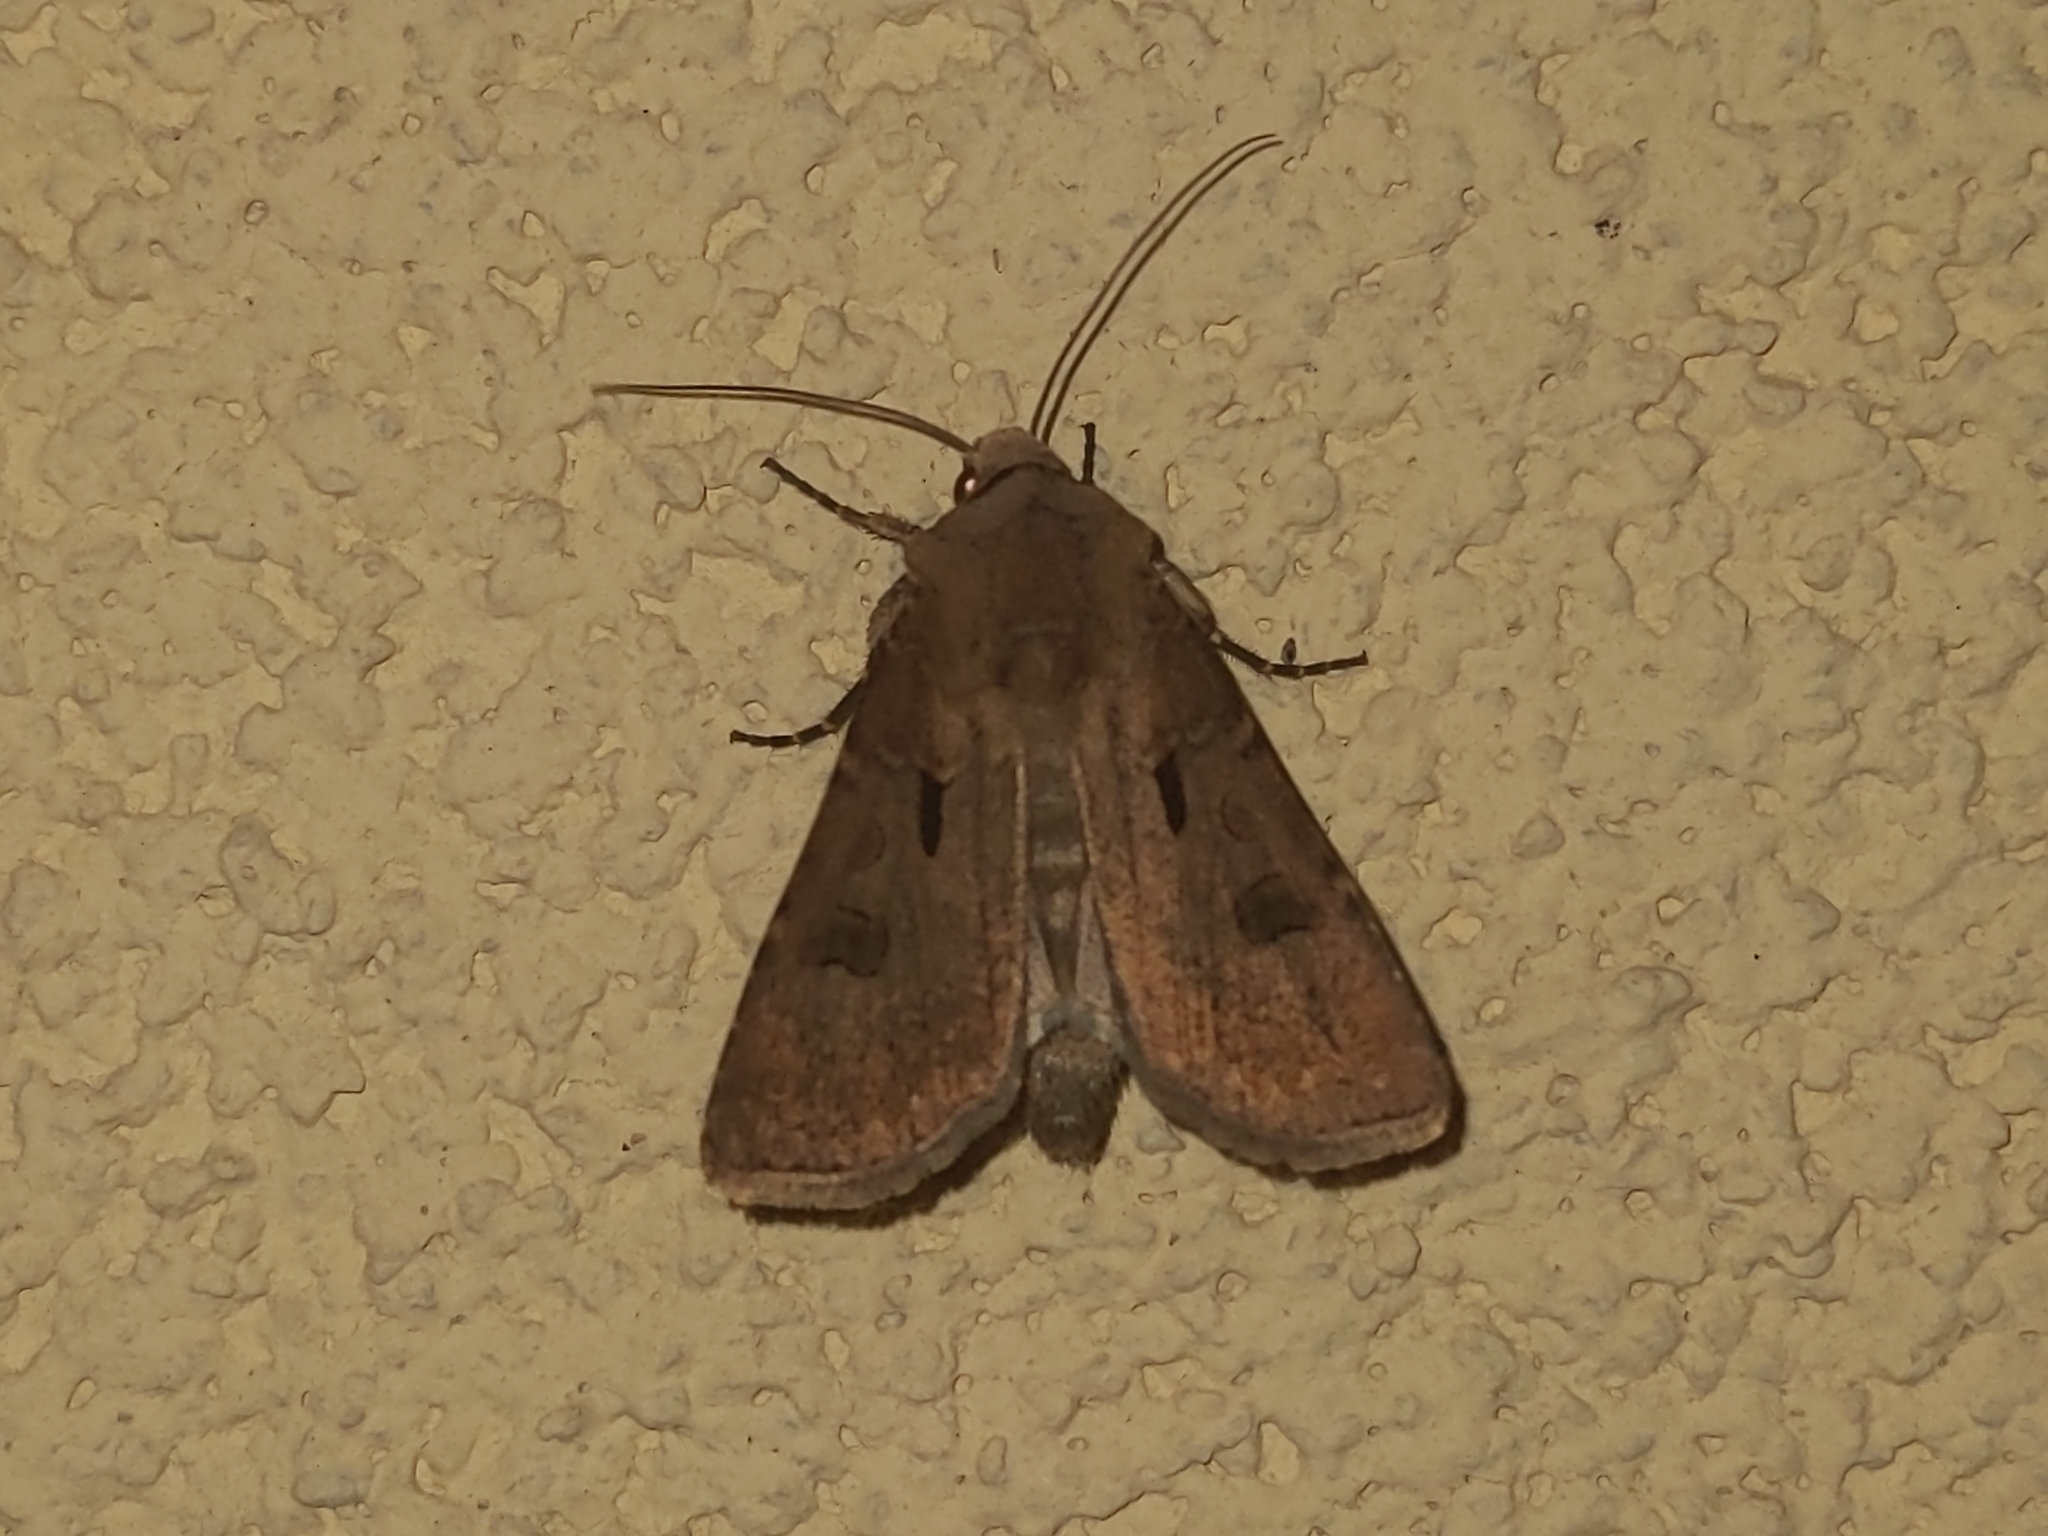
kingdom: Animalia
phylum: Arthropoda
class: Insecta
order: Lepidoptera
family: Noctuidae
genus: Agrotis
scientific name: Agrotis exclamationis
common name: Heart and dart
